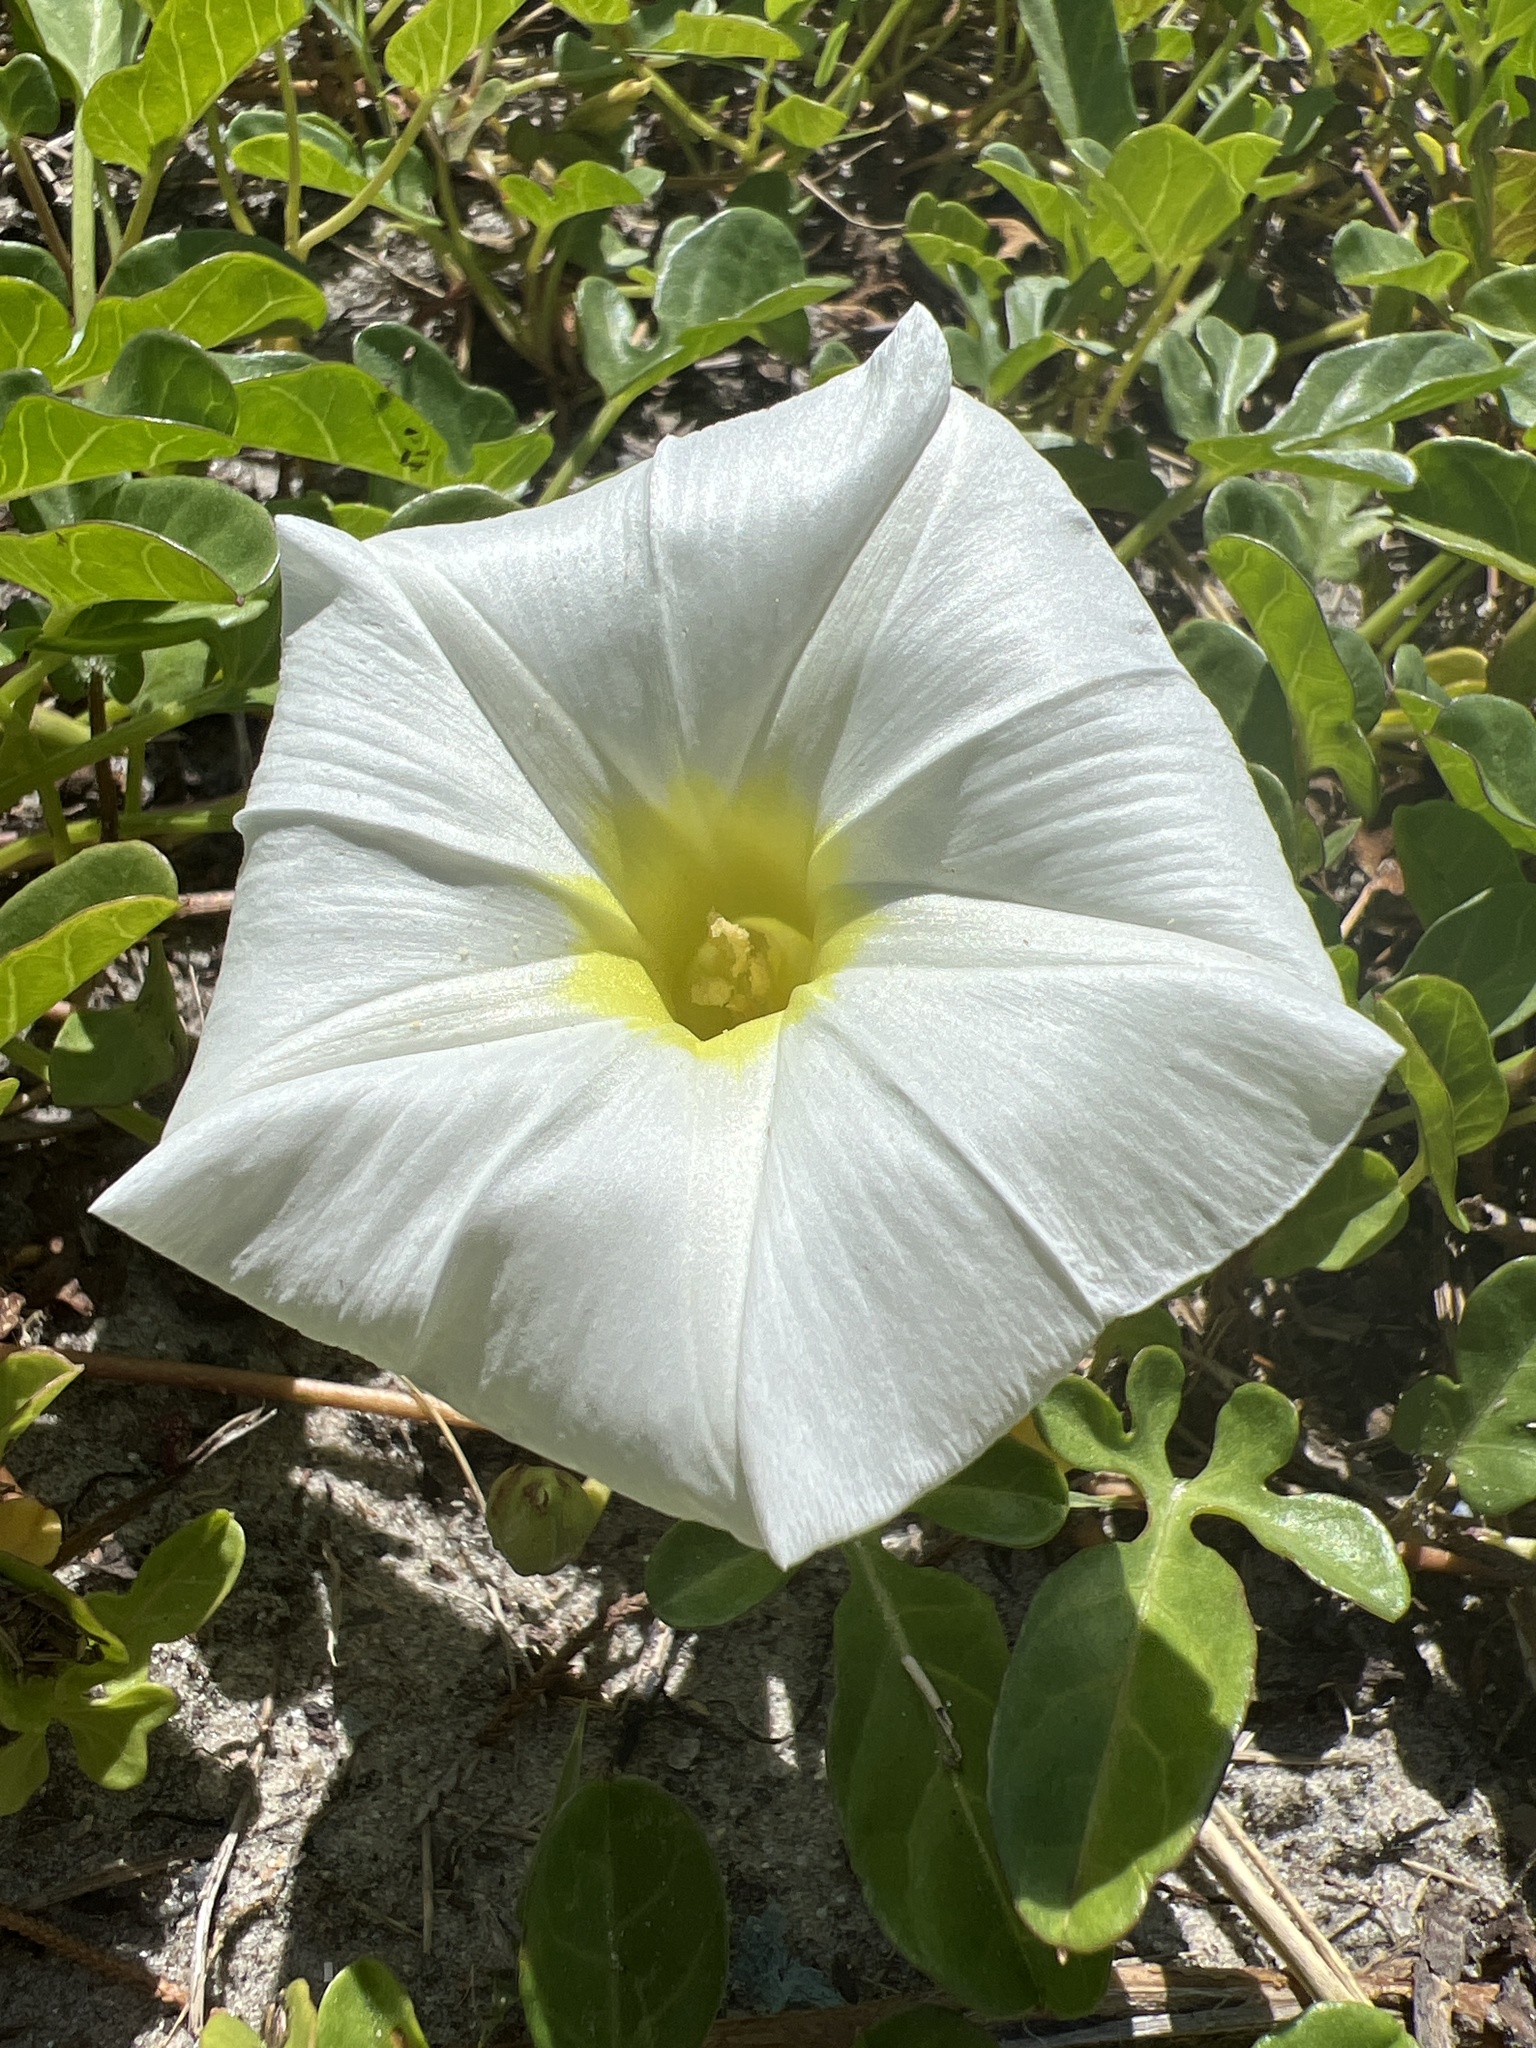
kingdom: Plantae
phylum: Tracheophyta
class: Magnoliopsida
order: Solanales
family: Convolvulaceae
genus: Ipomoea
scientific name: Ipomoea imperati
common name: Fiddle-leaf morning-glory
